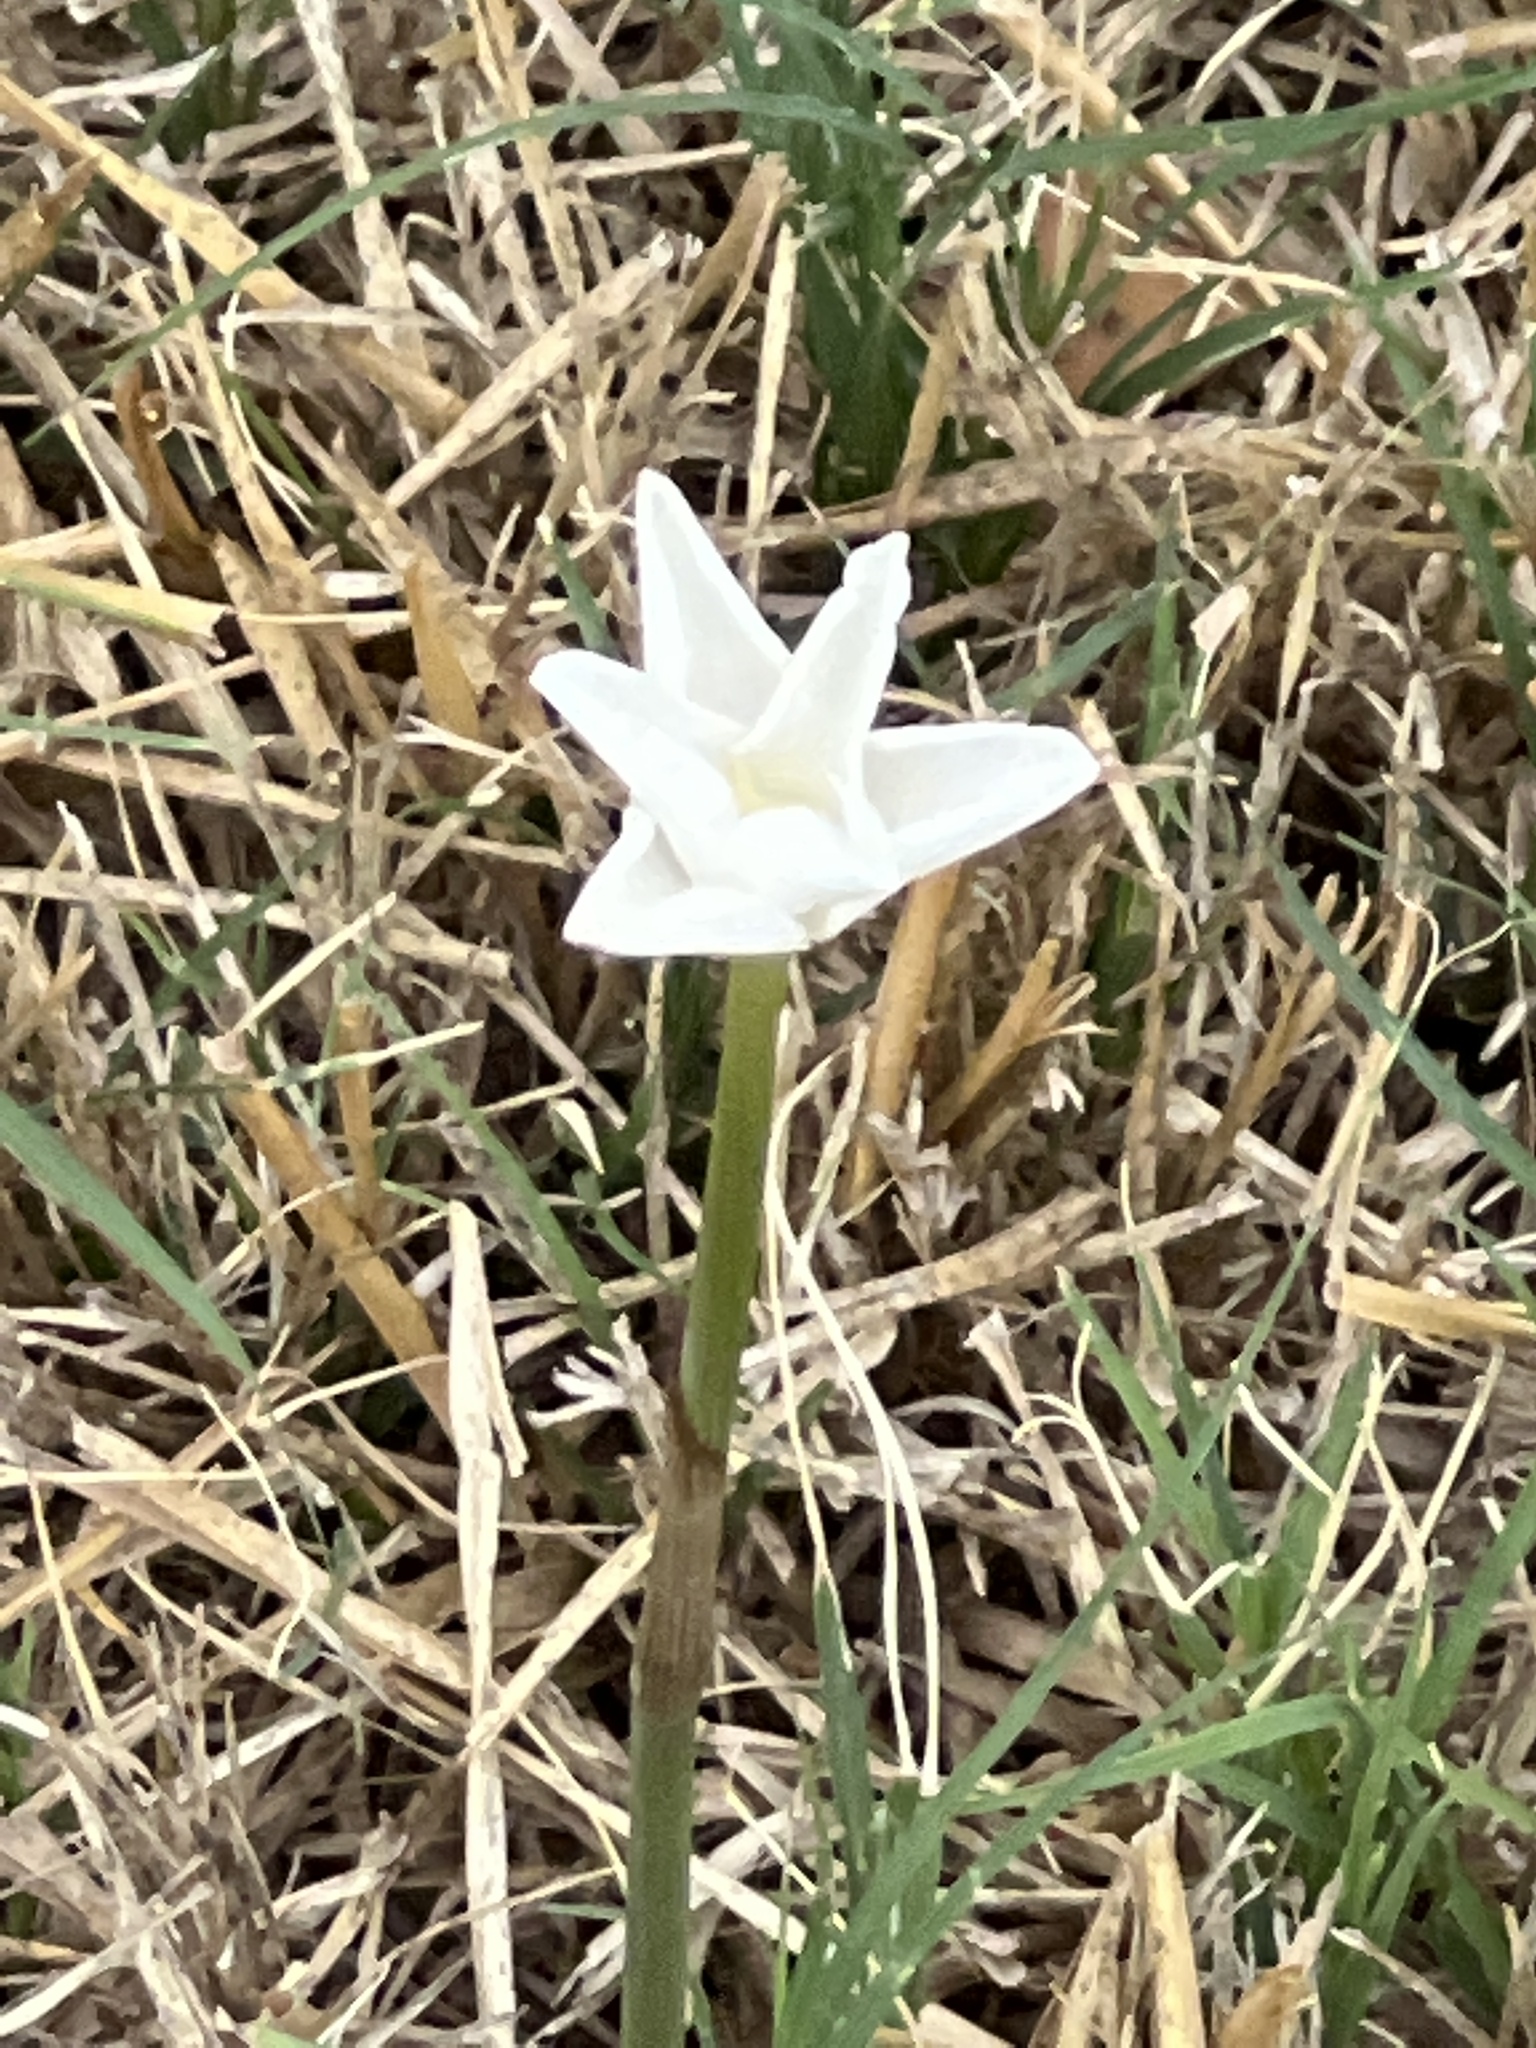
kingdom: Plantae
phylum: Tracheophyta
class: Liliopsida
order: Asparagales
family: Amaryllidaceae
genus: Zephyranthes
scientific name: Zephyranthes chlorosolen
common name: Evening rain-lily
